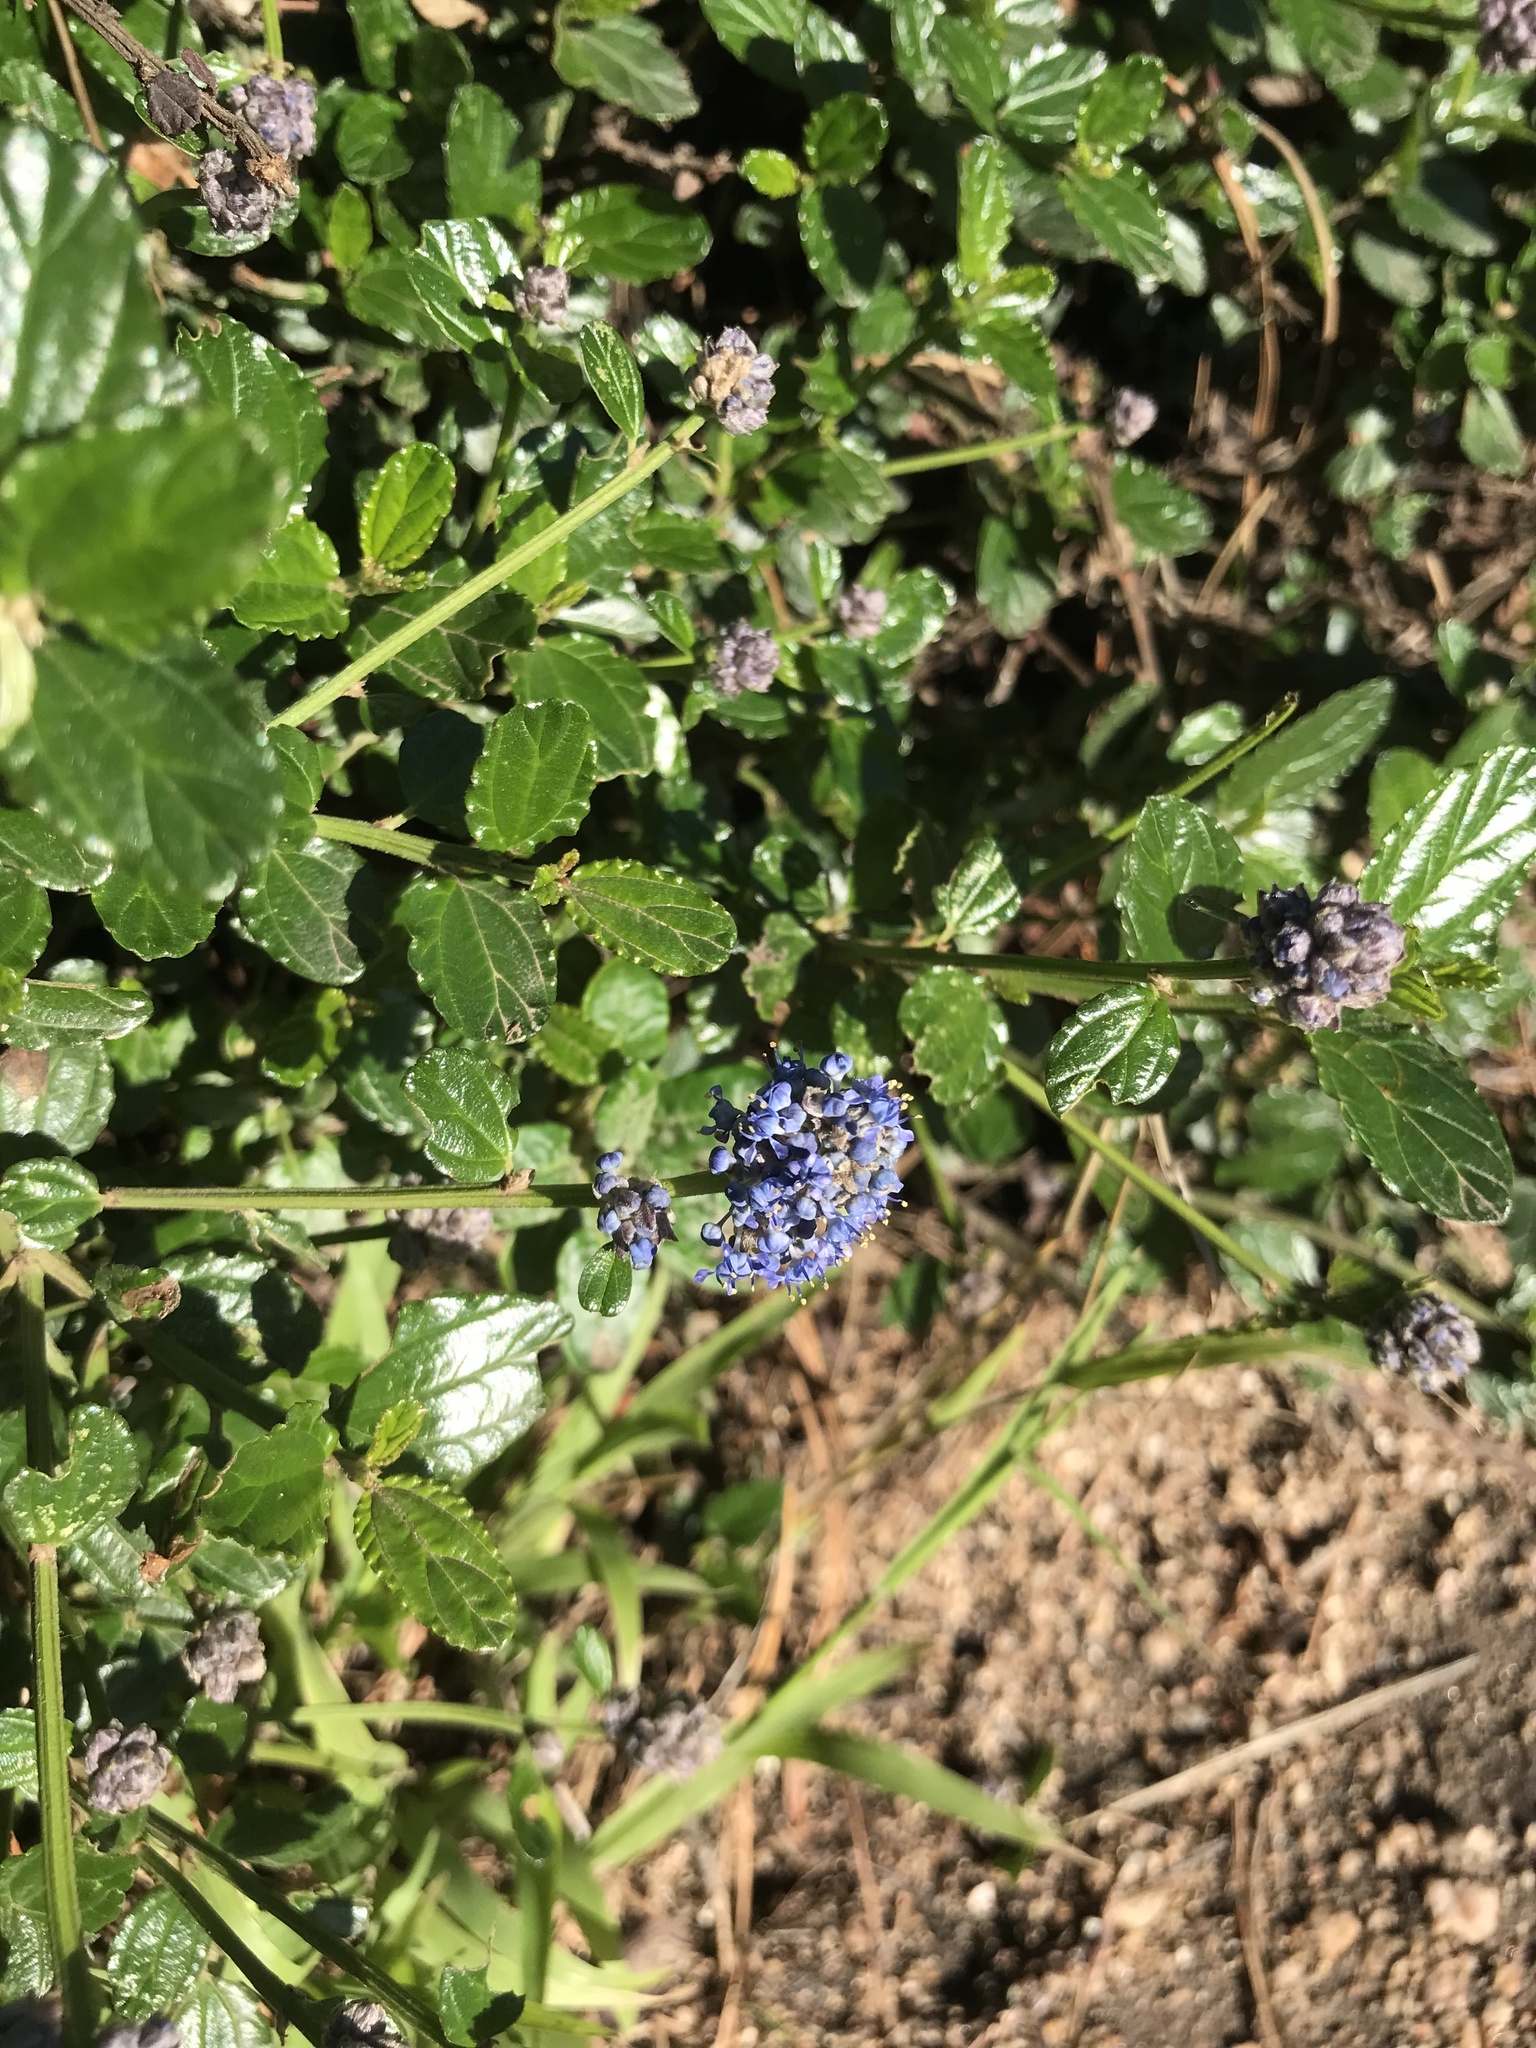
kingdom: Plantae
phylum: Tracheophyta
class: Magnoliopsida
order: Rosales
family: Rhamnaceae
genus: Ceanothus
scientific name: Ceanothus thyrsiflorus
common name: California-lilac
